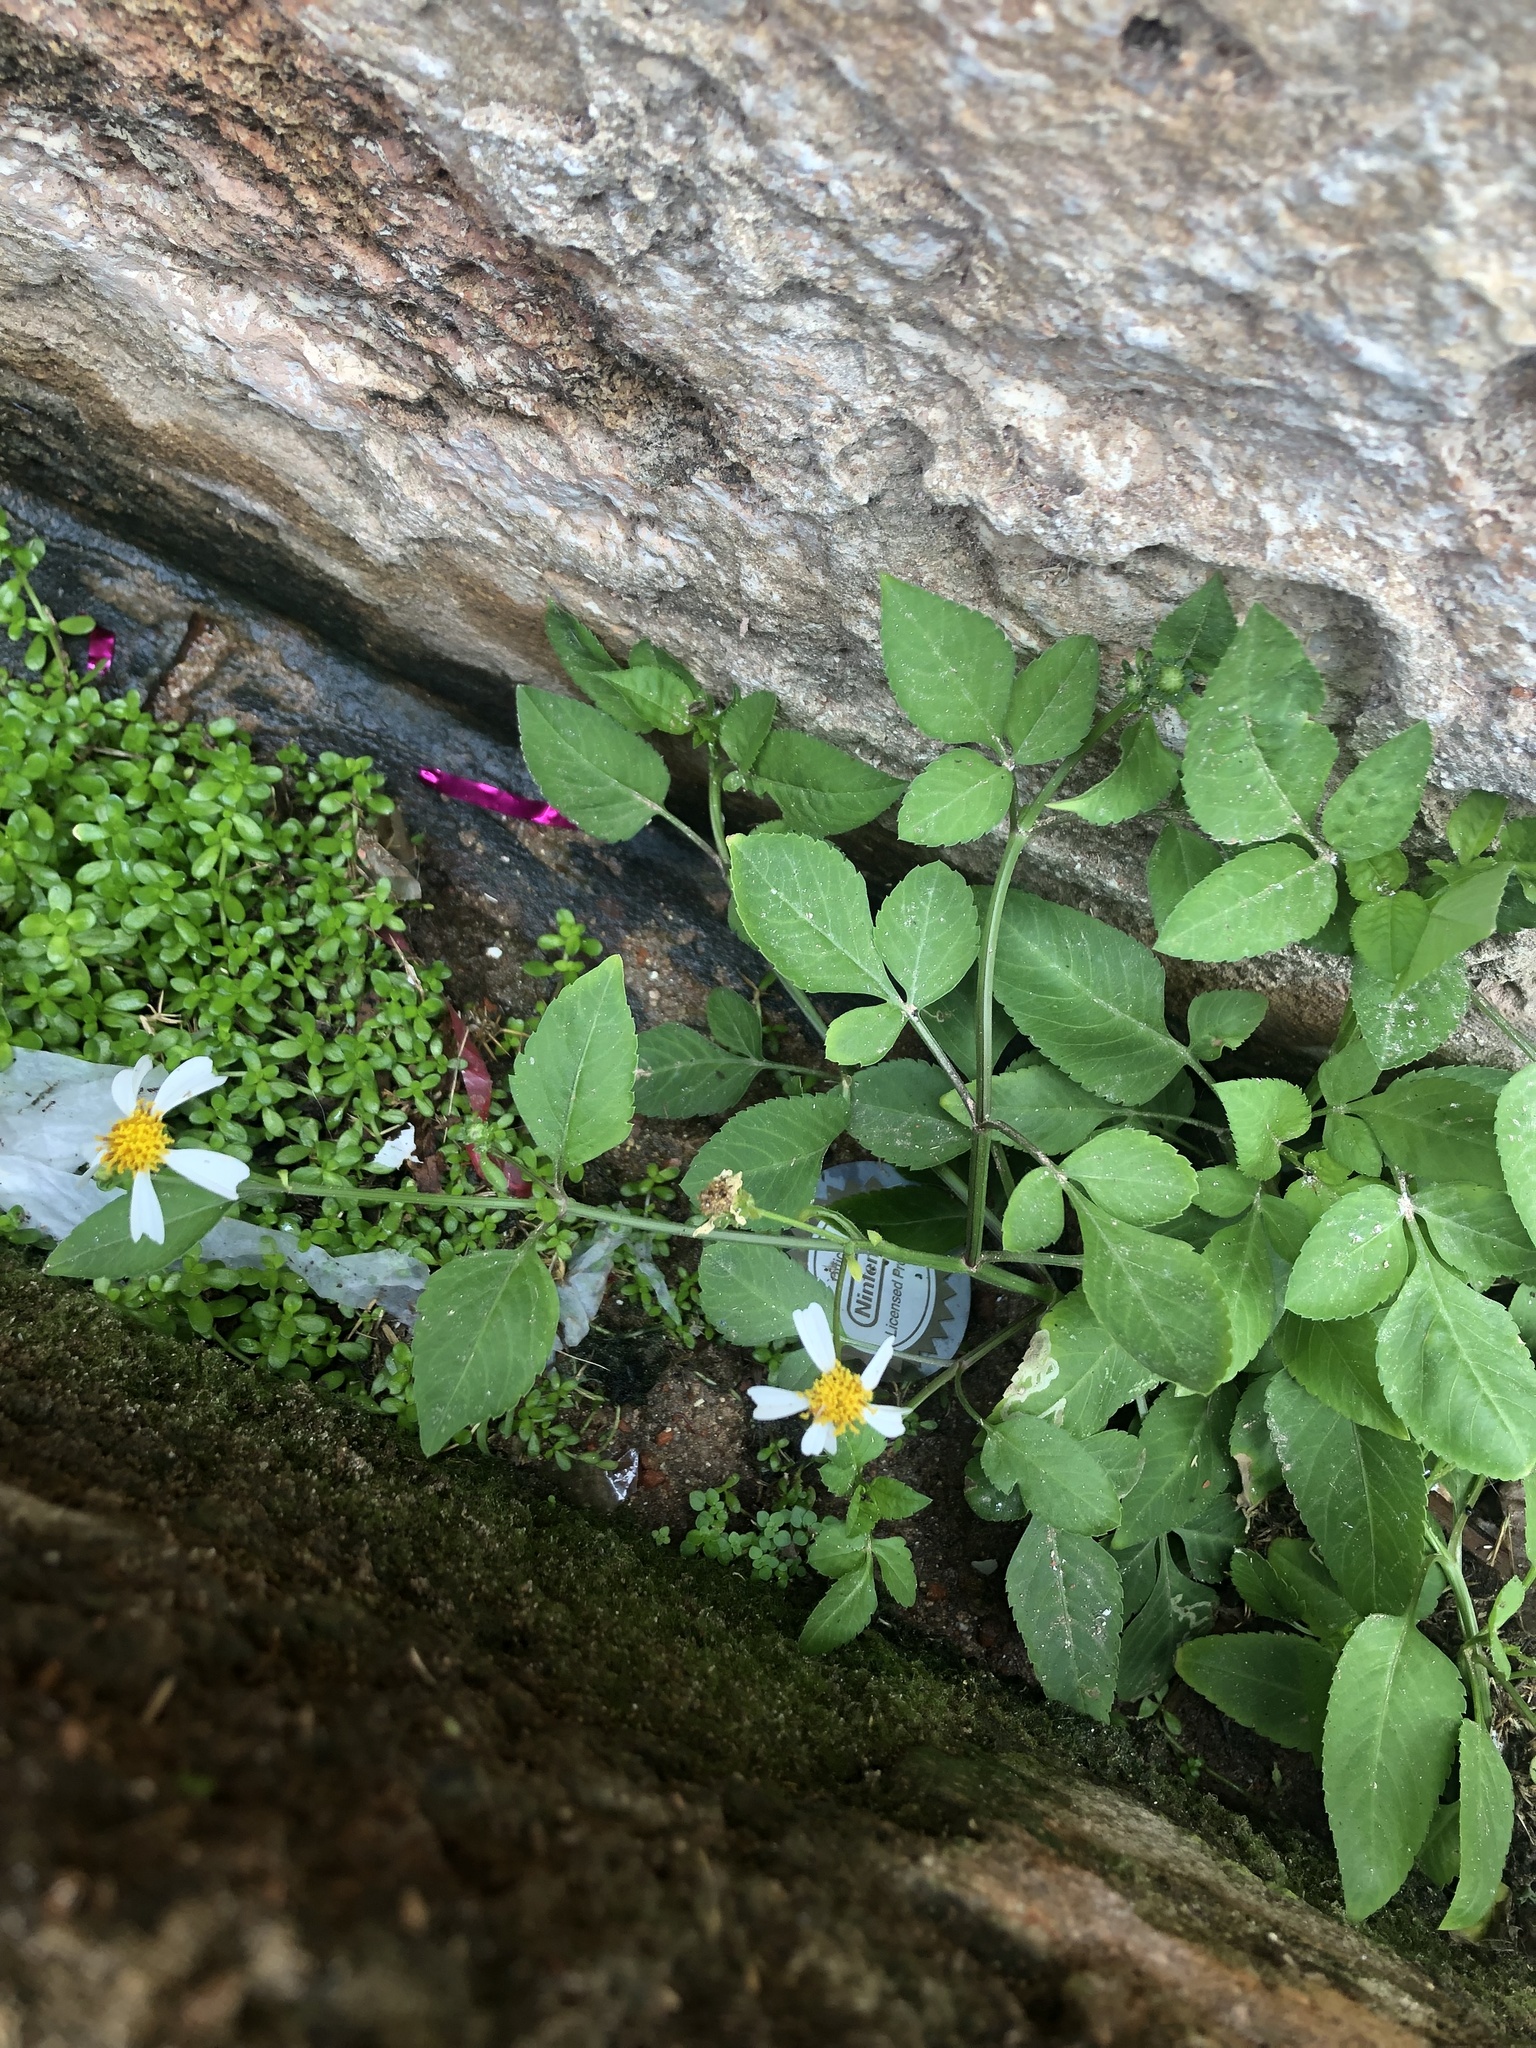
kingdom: Plantae
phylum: Tracheophyta
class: Magnoliopsida
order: Asterales
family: Asteraceae
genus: Bidens
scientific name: Bidens alba
